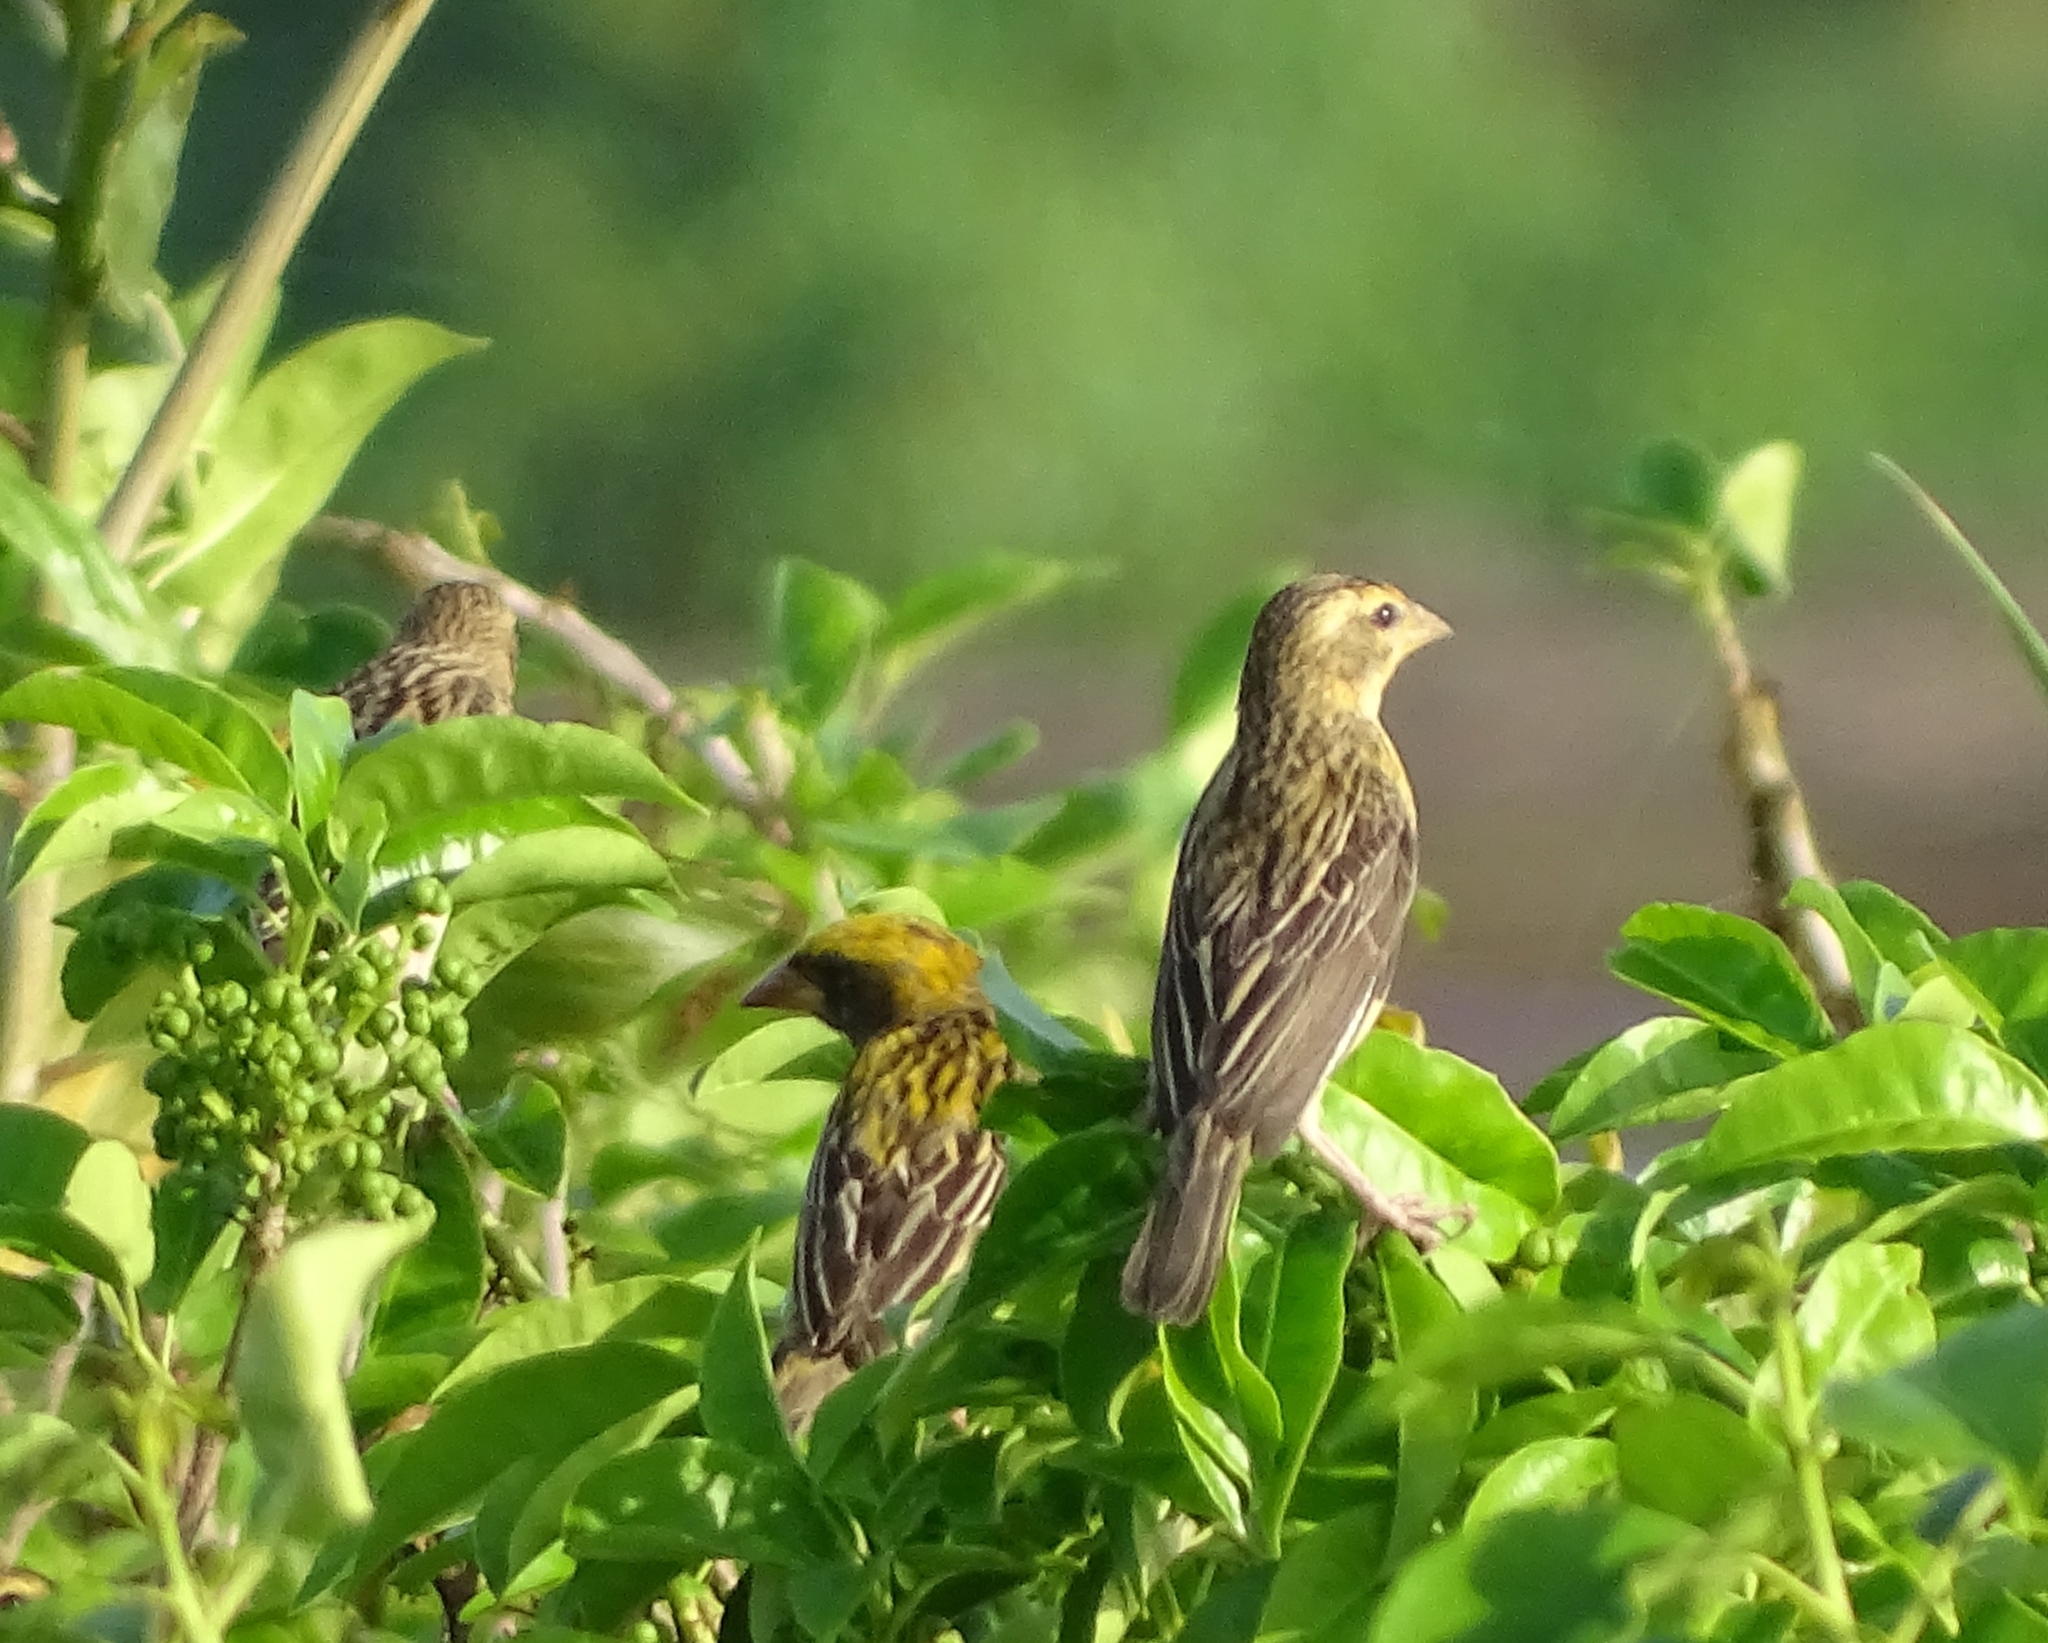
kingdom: Animalia
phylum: Chordata
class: Aves
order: Passeriformes
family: Ploceidae
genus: Ploceus
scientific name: Ploceus philippinus
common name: Baya weaver
